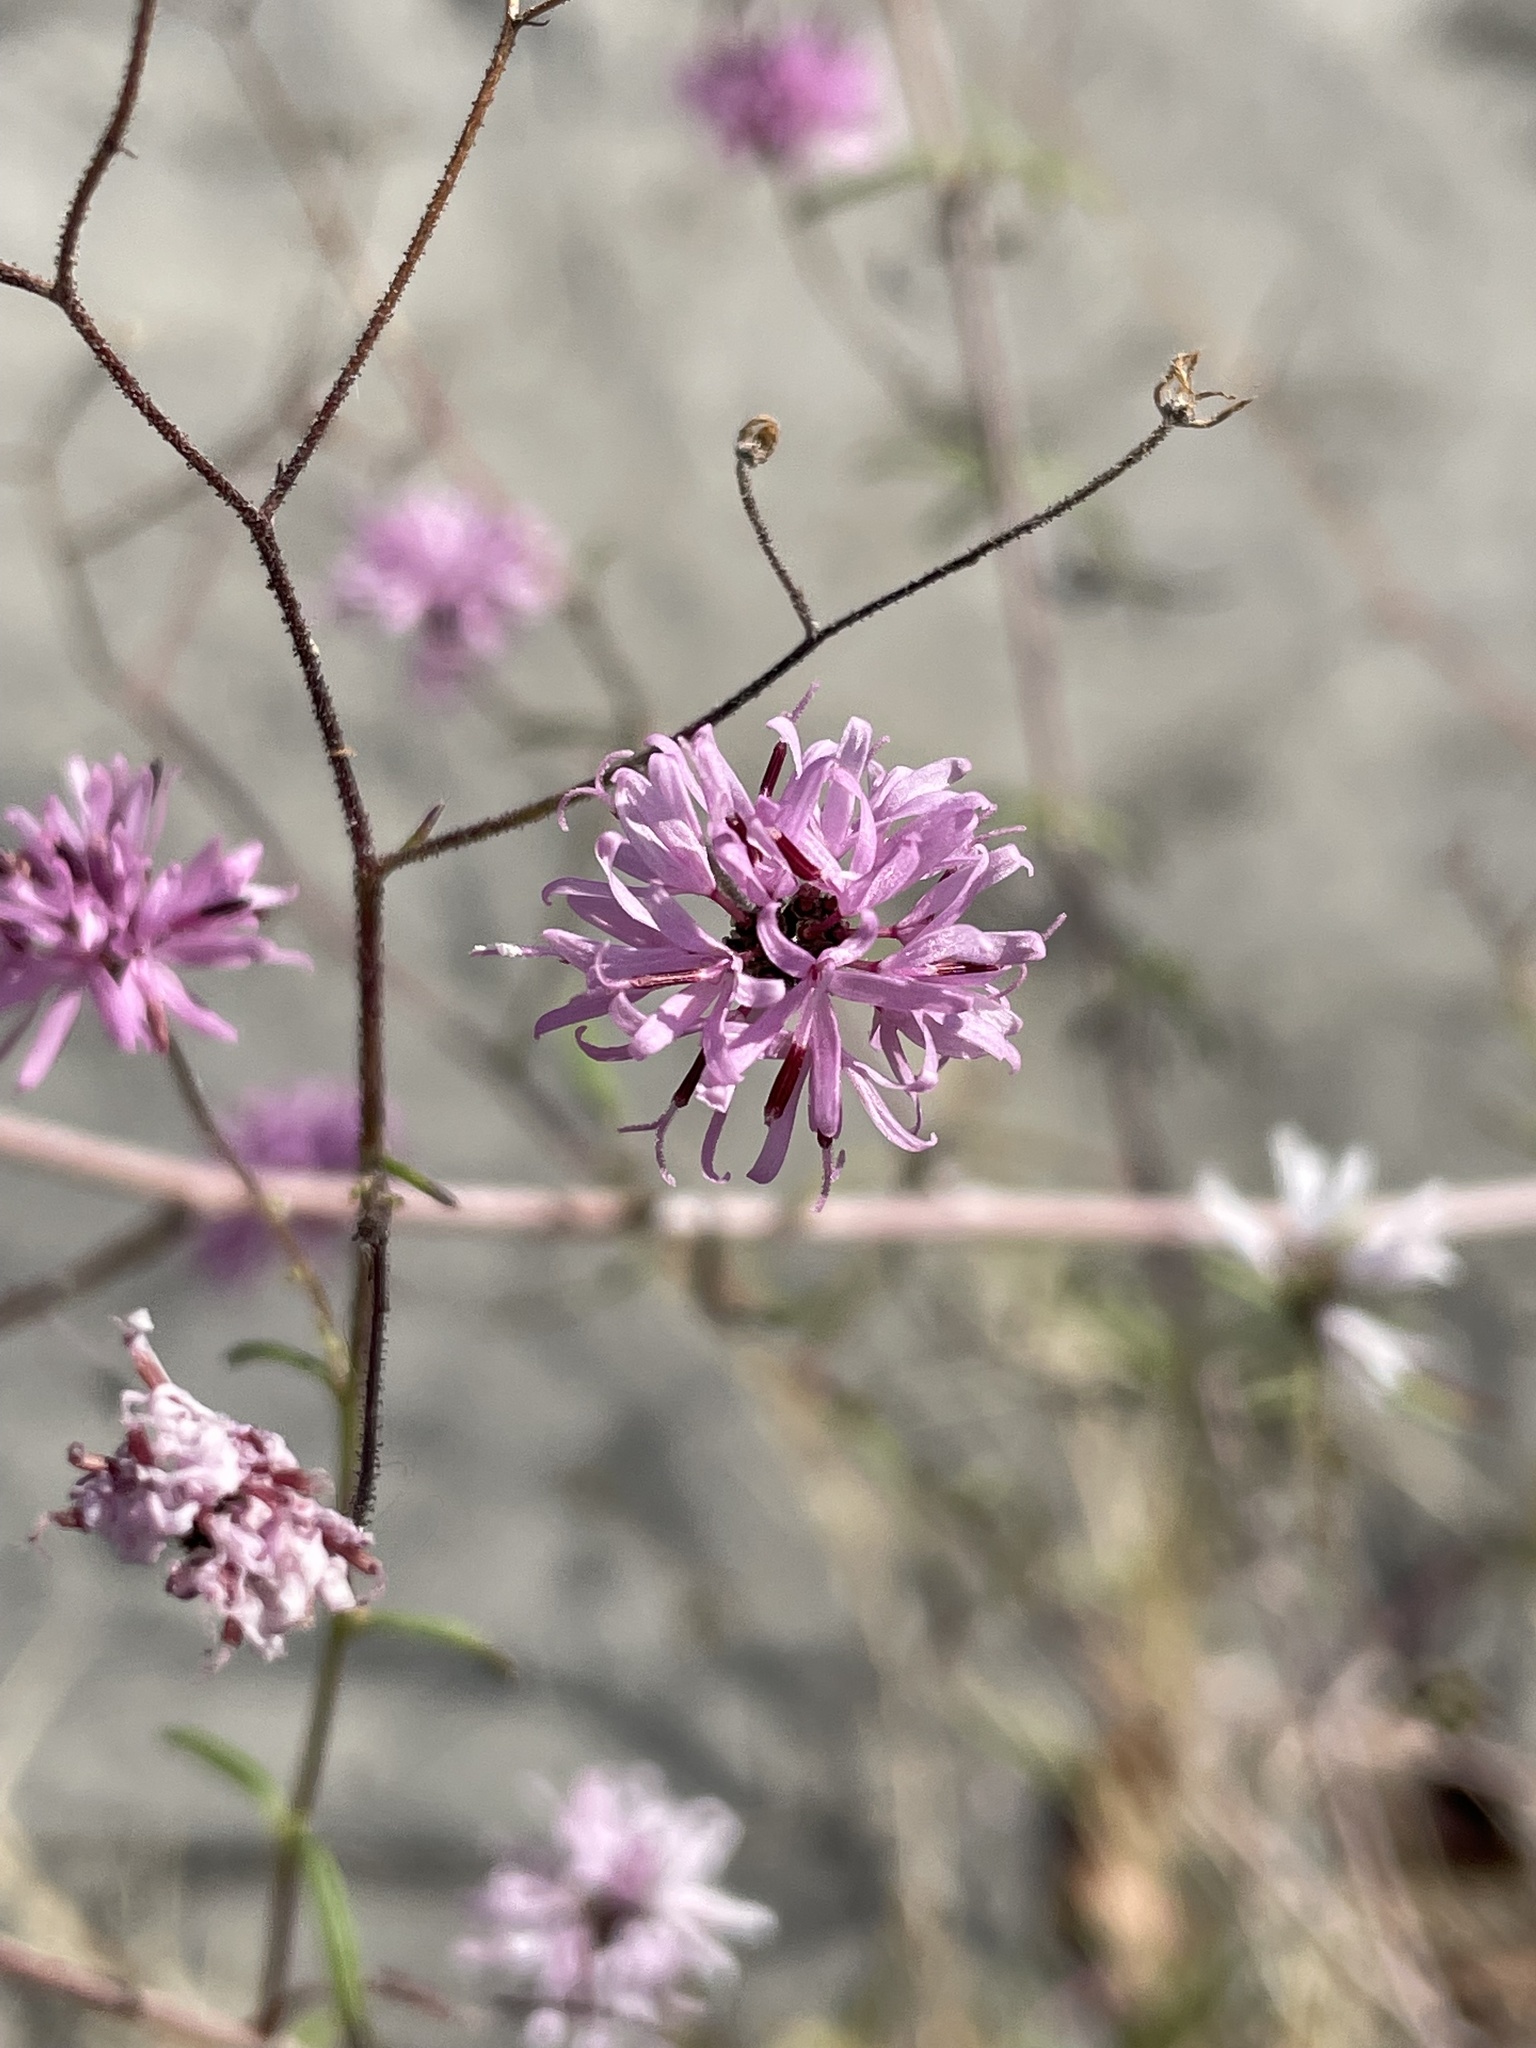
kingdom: Plantae
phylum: Tracheophyta
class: Magnoliopsida
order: Asterales
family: Asteraceae
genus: Palafoxia
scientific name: Palafoxia callosa
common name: Small palafox
